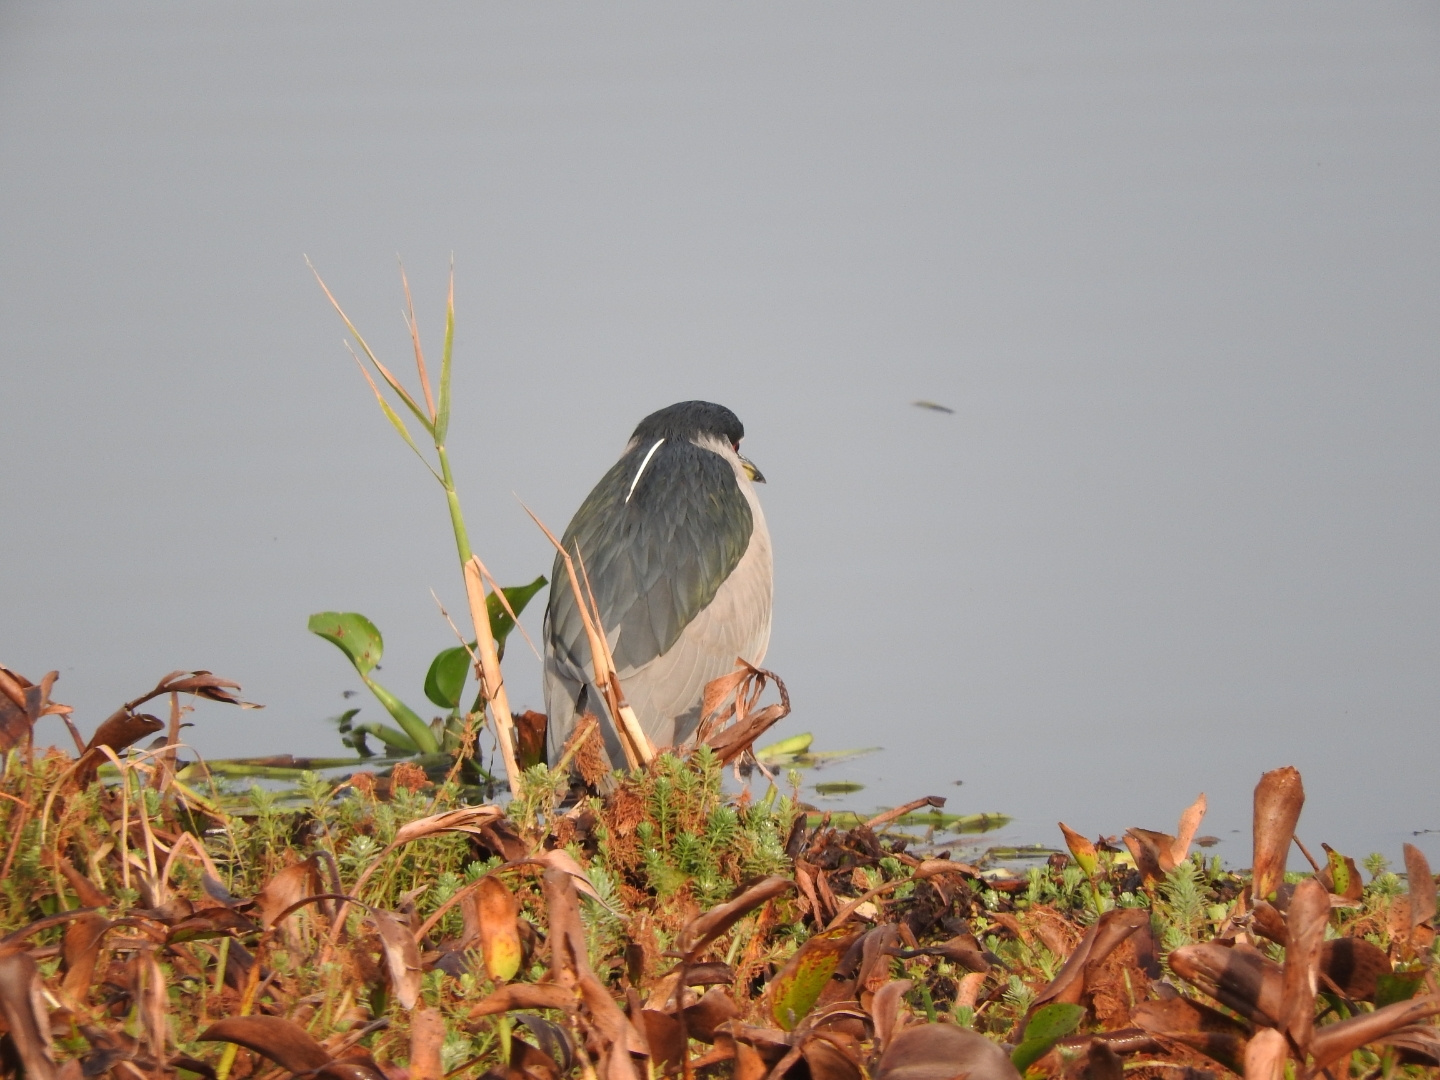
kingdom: Animalia
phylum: Chordata
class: Aves
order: Pelecaniformes
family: Ardeidae
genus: Nycticorax
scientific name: Nycticorax nycticorax
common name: Black-crowned night heron
